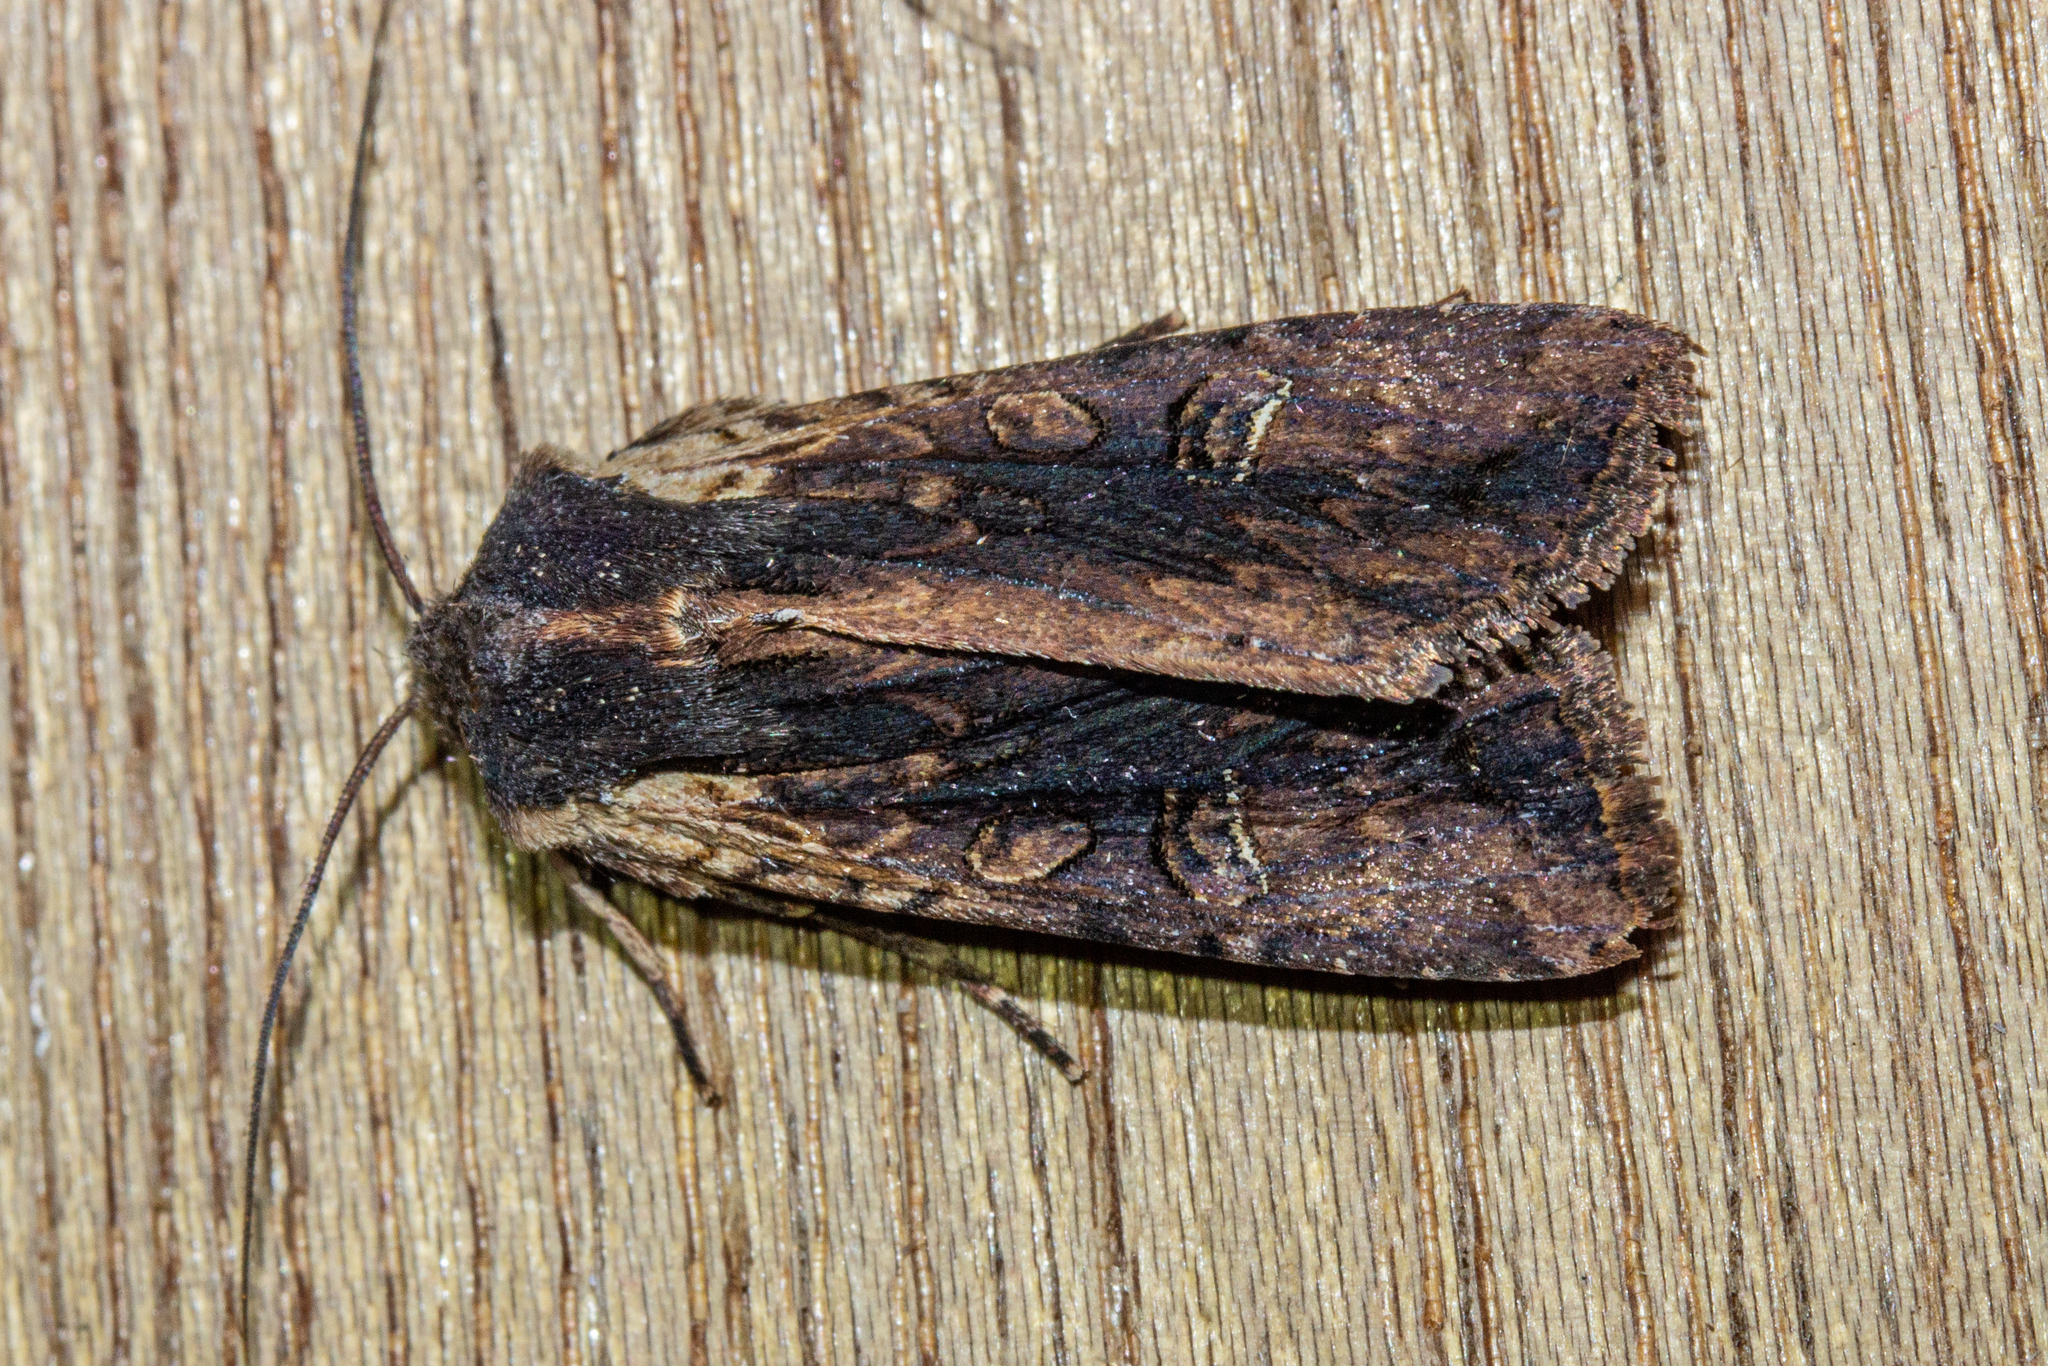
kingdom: Animalia
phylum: Arthropoda
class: Insecta
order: Lepidoptera
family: Noctuidae
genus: Ichneutica
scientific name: Ichneutica omoplaca
